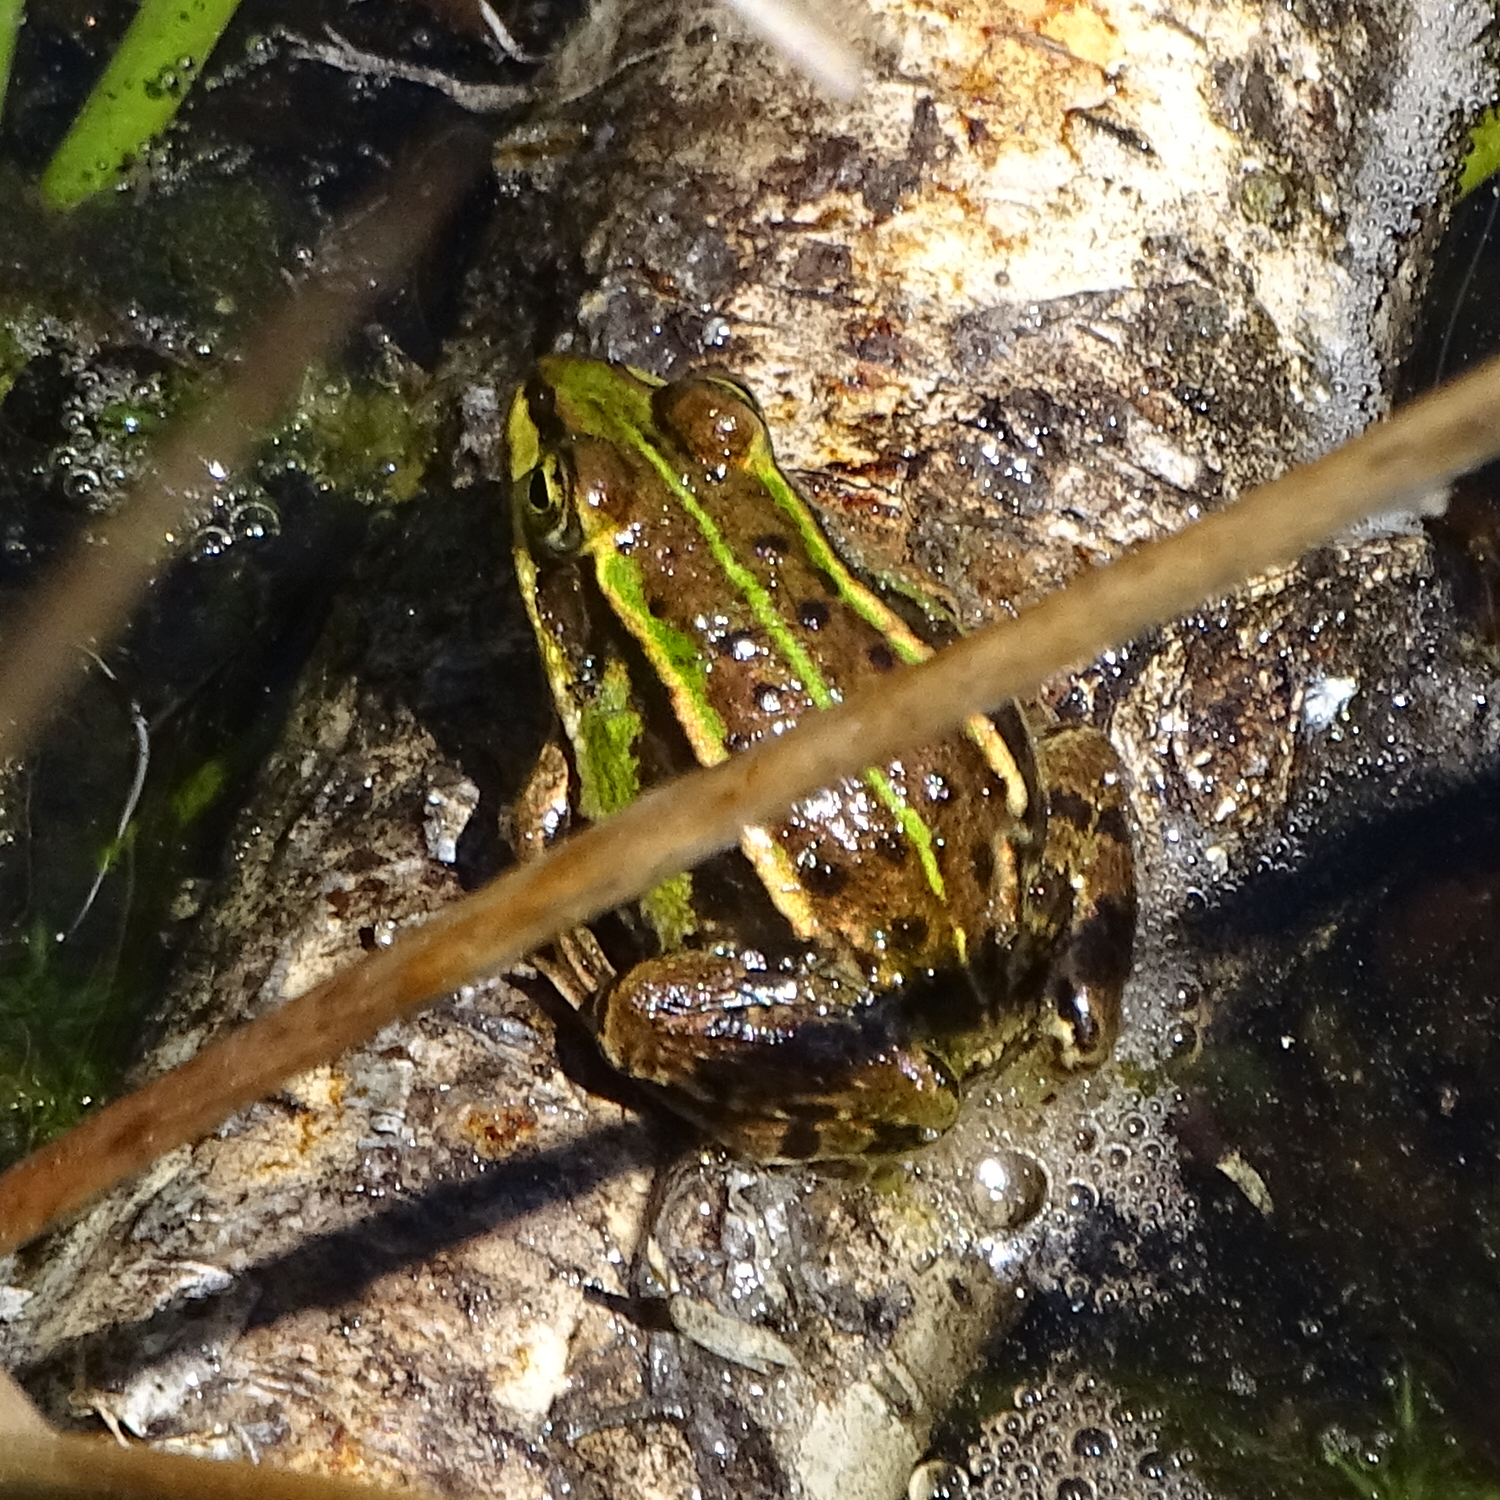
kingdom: Animalia
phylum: Chordata
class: Amphibia
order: Anura
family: Ranidae
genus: Pelophylax
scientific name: Pelophylax
